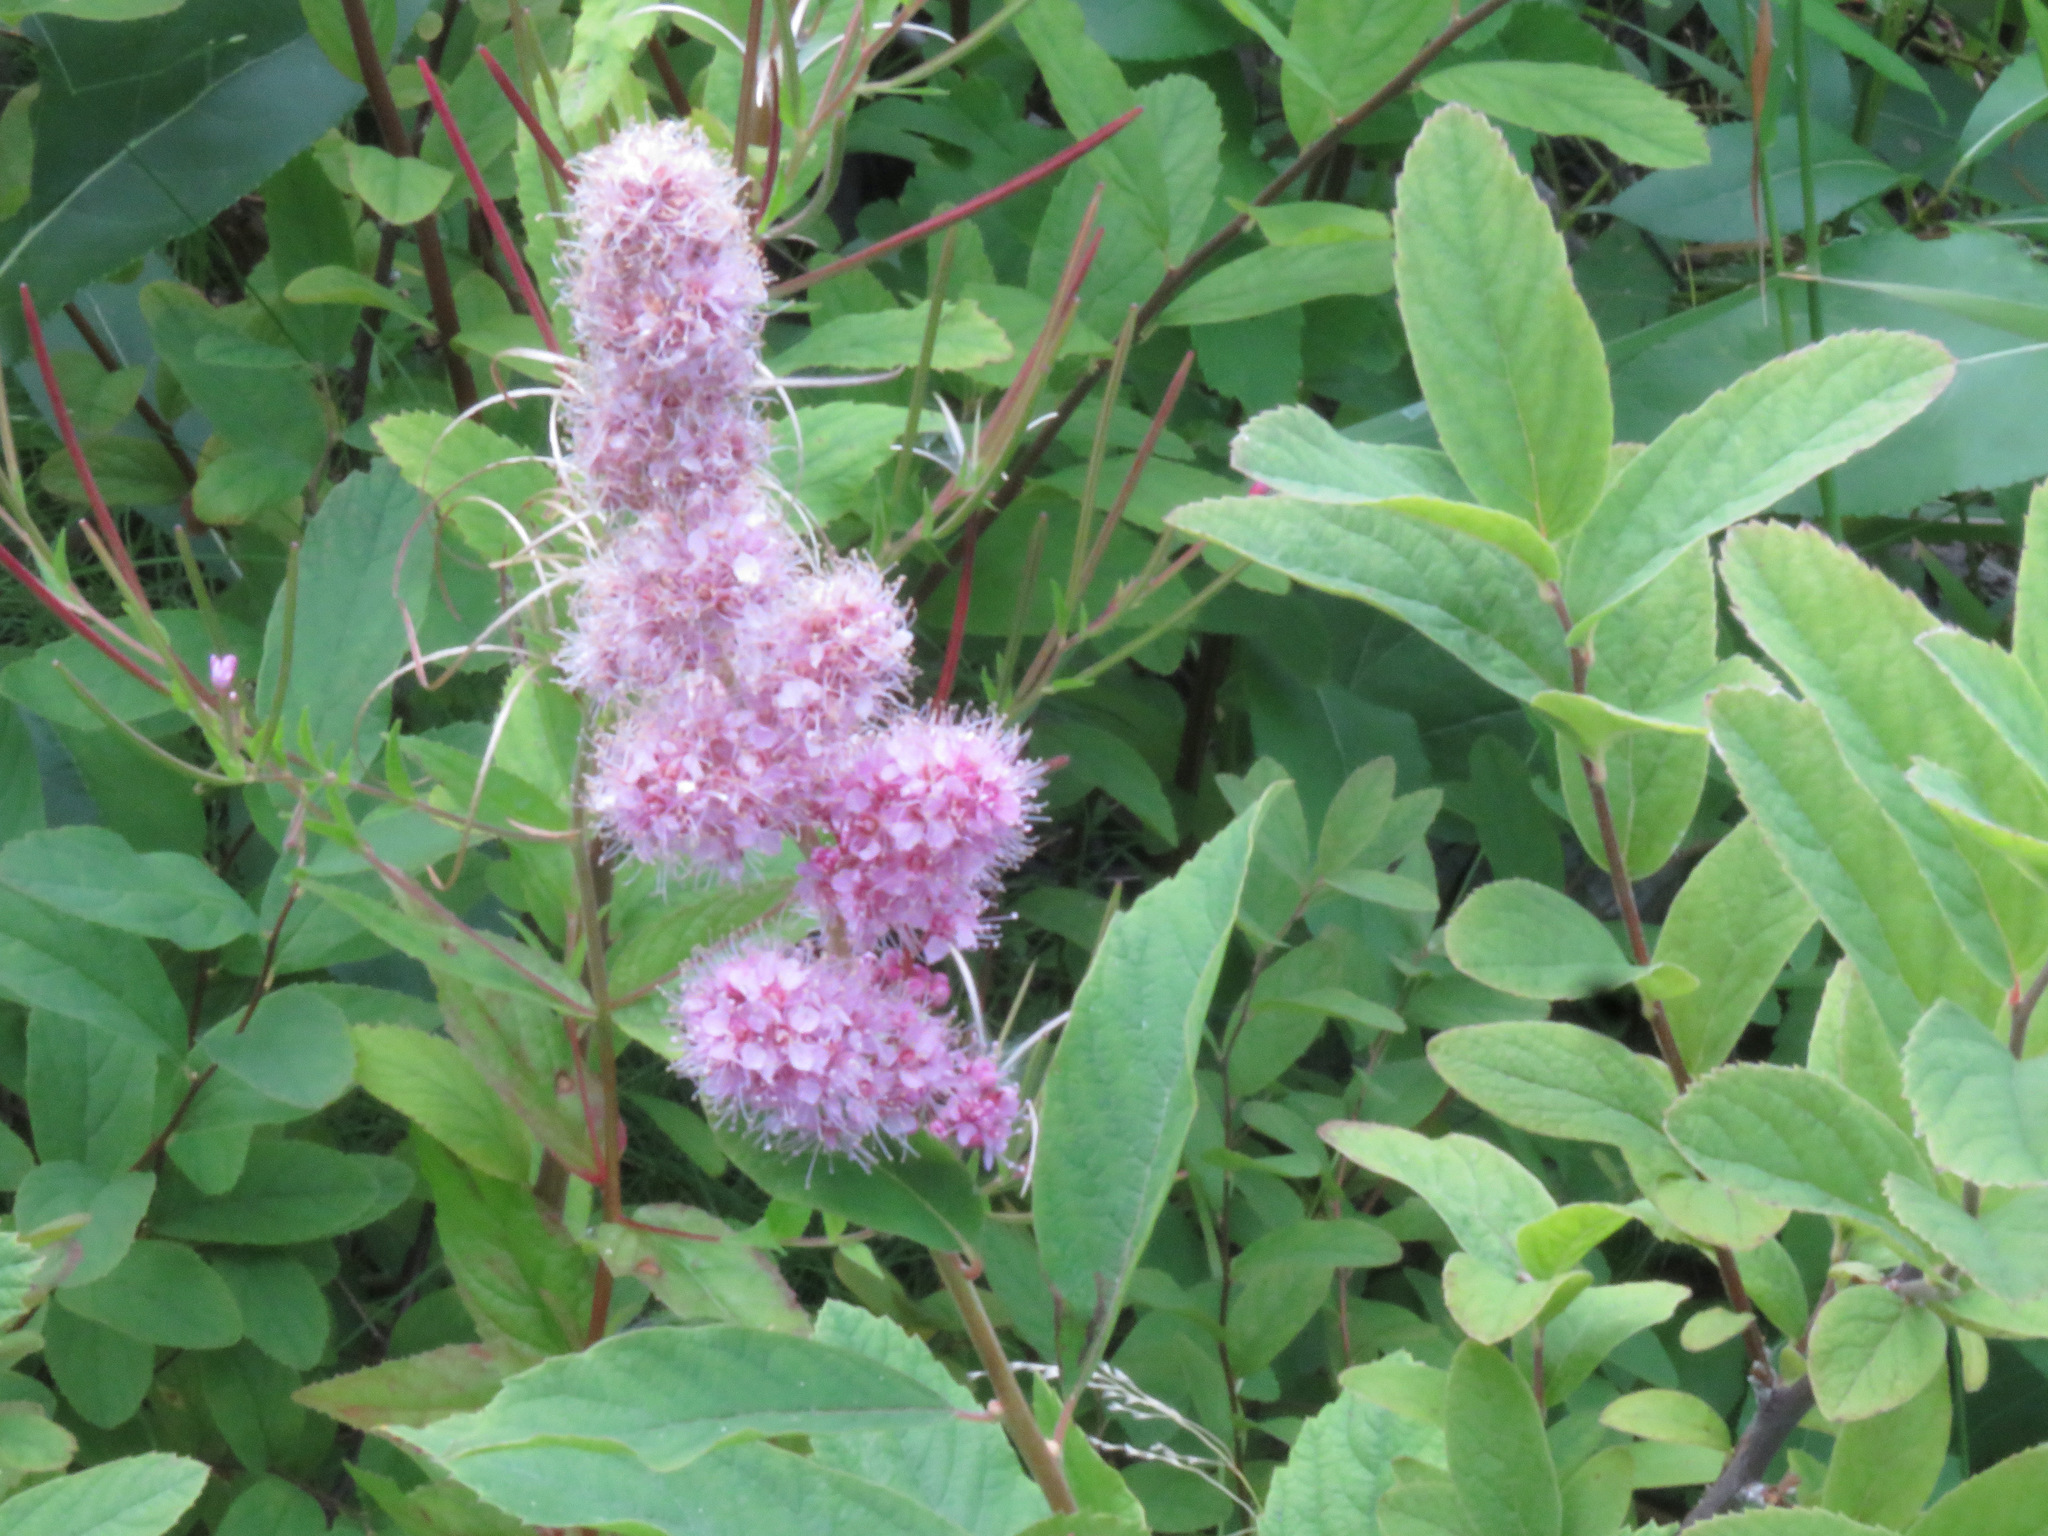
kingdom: Plantae
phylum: Tracheophyta
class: Magnoliopsida
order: Rosales
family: Rosaceae
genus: Spiraea
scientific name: Spiraea douglasii
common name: Steeplebush
